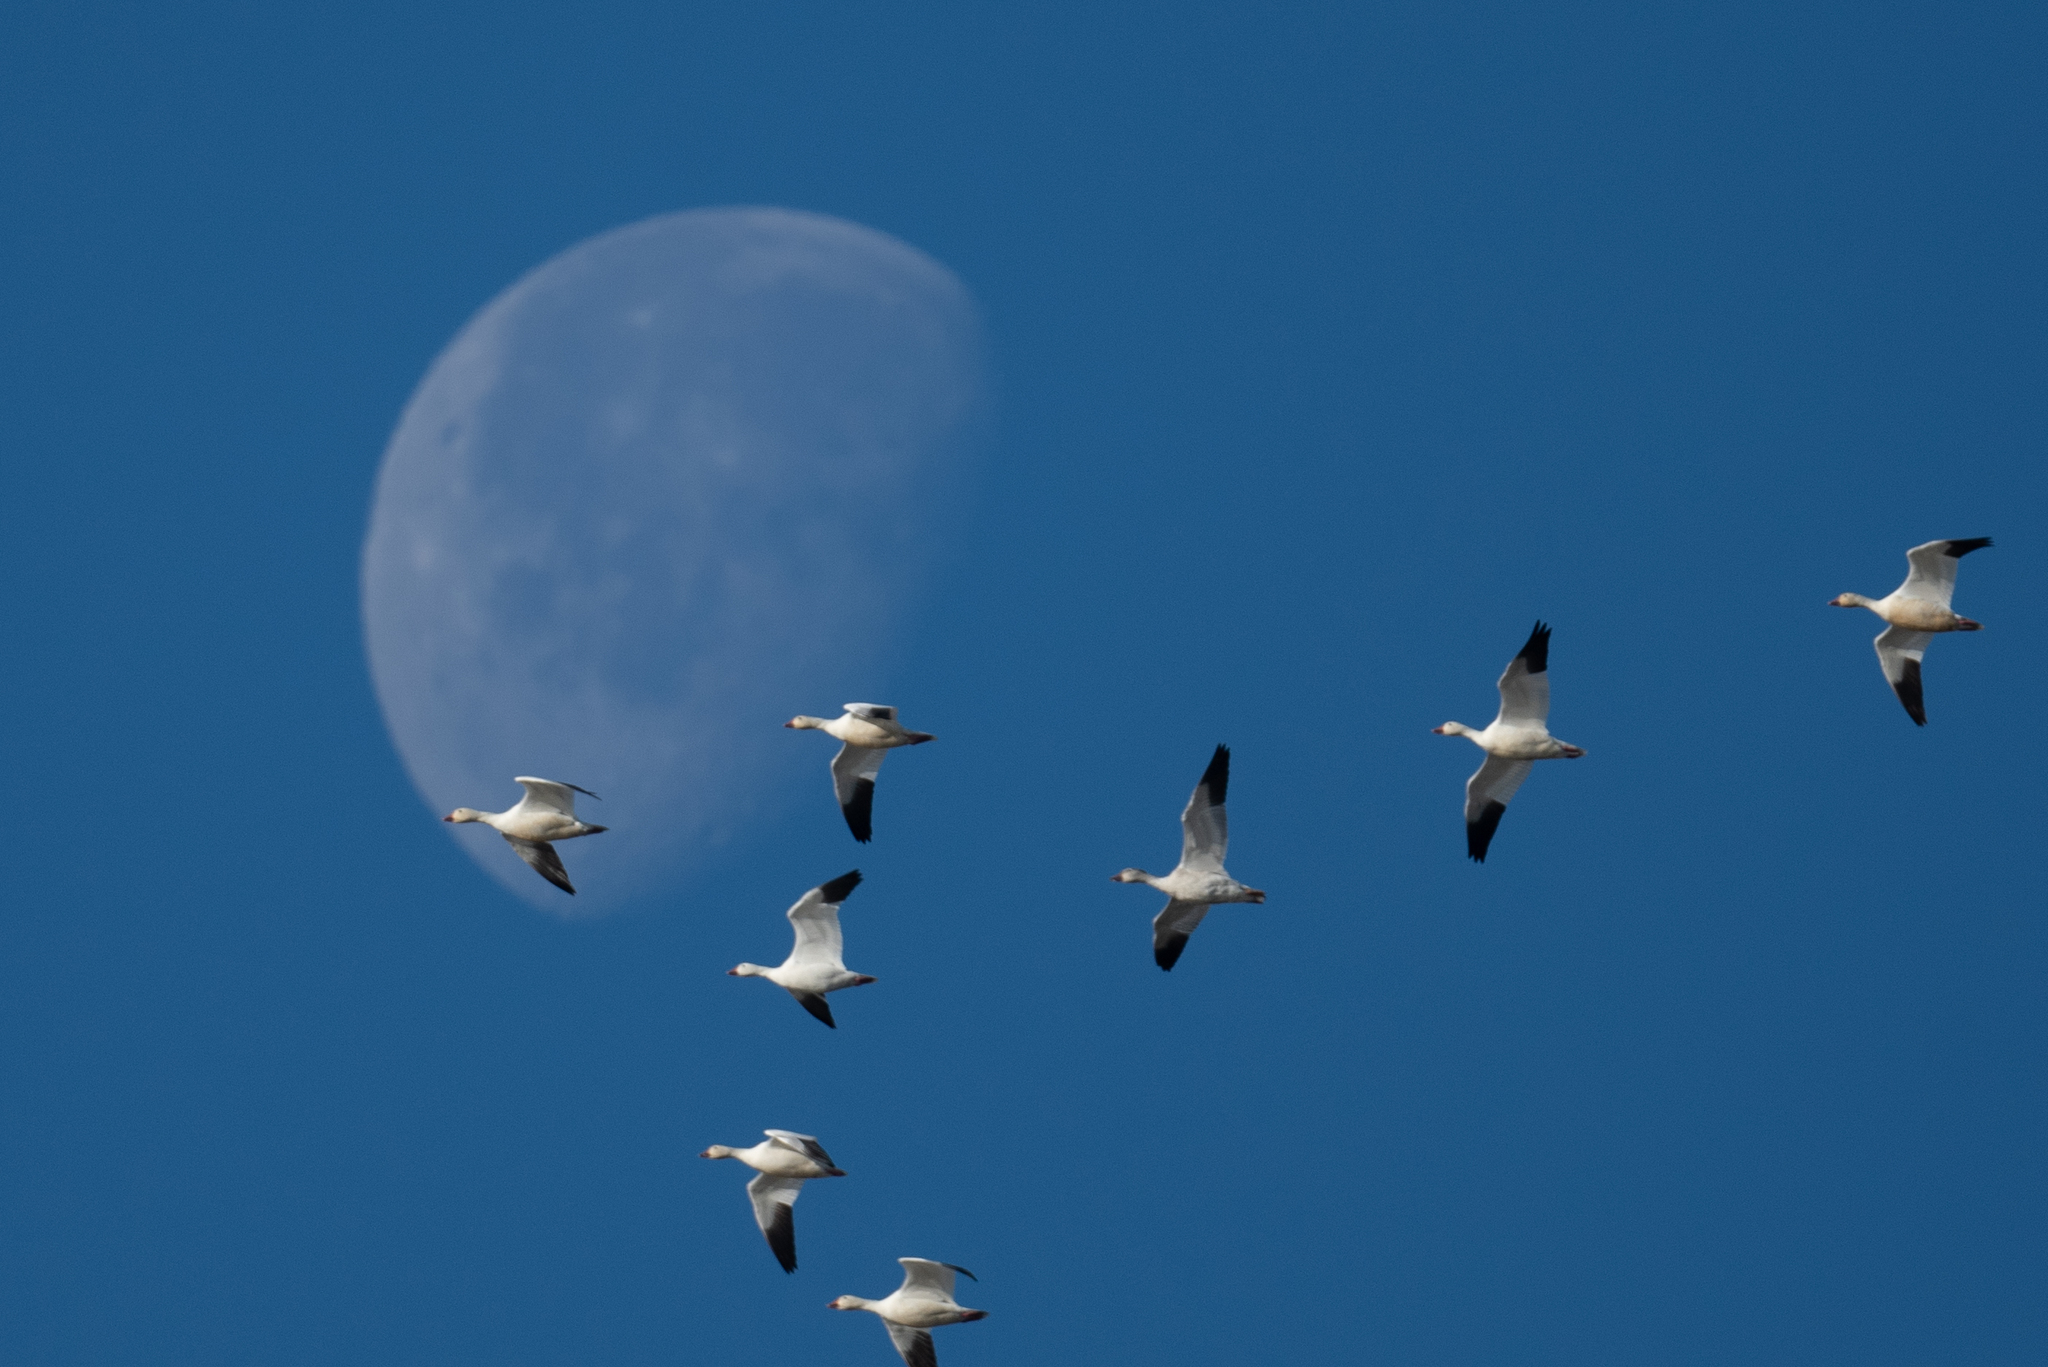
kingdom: Animalia
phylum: Chordata
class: Aves
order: Anseriformes
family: Anatidae
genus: Anser
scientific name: Anser caerulescens
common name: Snow goose
